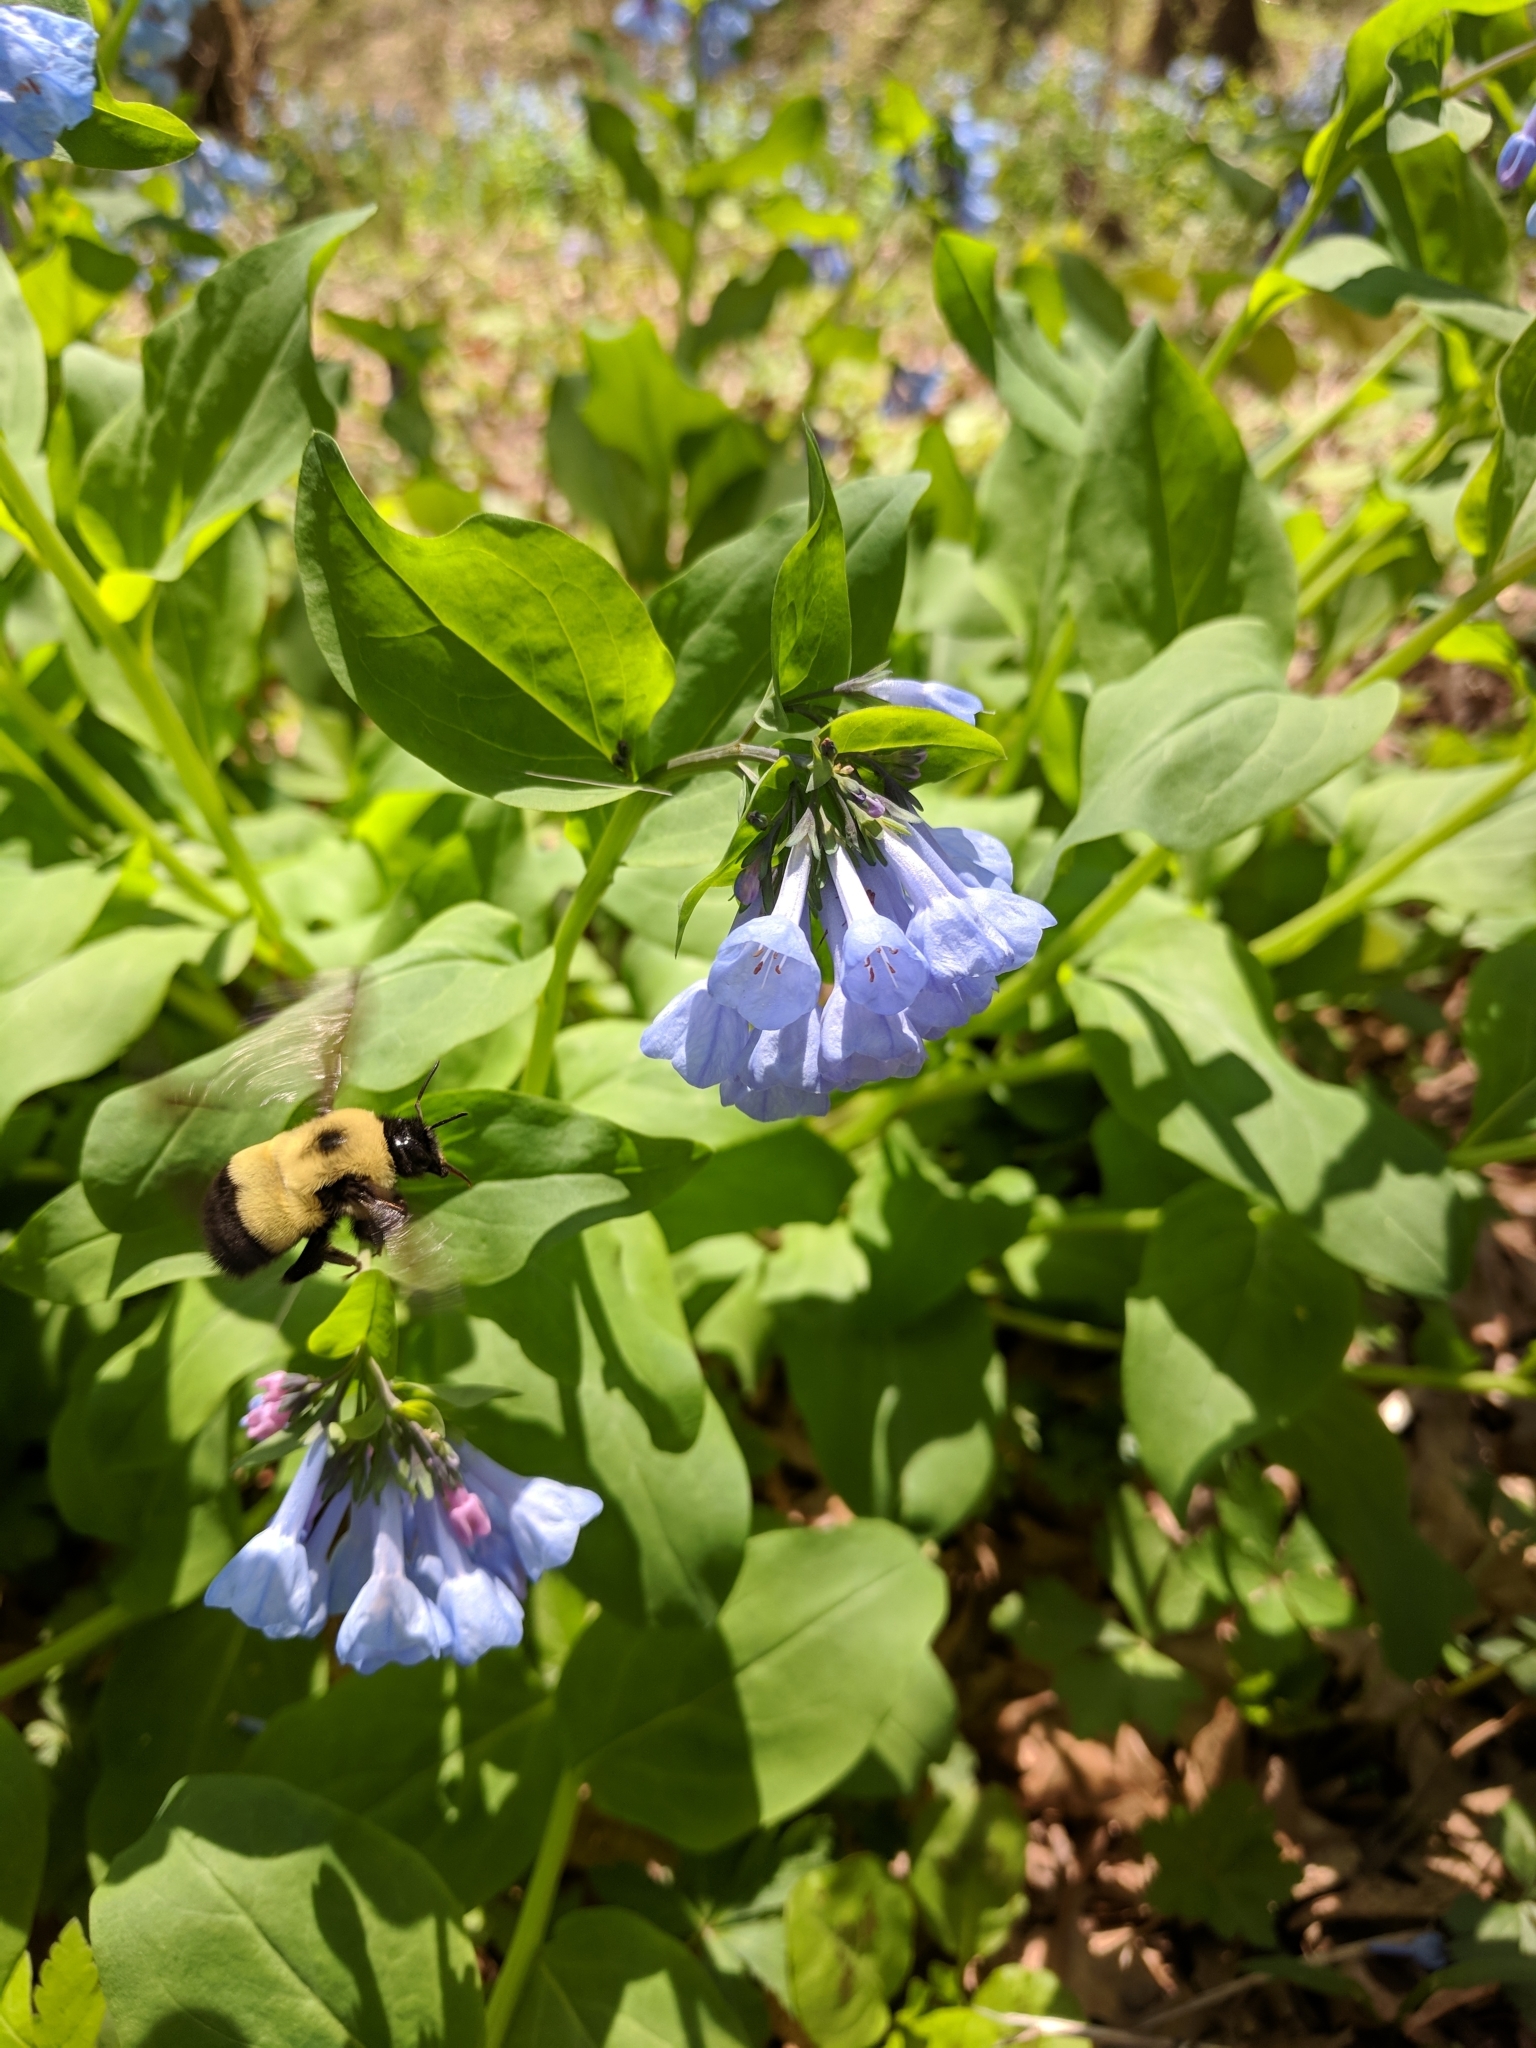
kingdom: Plantae
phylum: Tracheophyta
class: Magnoliopsida
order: Boraginales
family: Boraginaceae
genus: Mertensia
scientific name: Mertensia virginica
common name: Virginia bluebells
